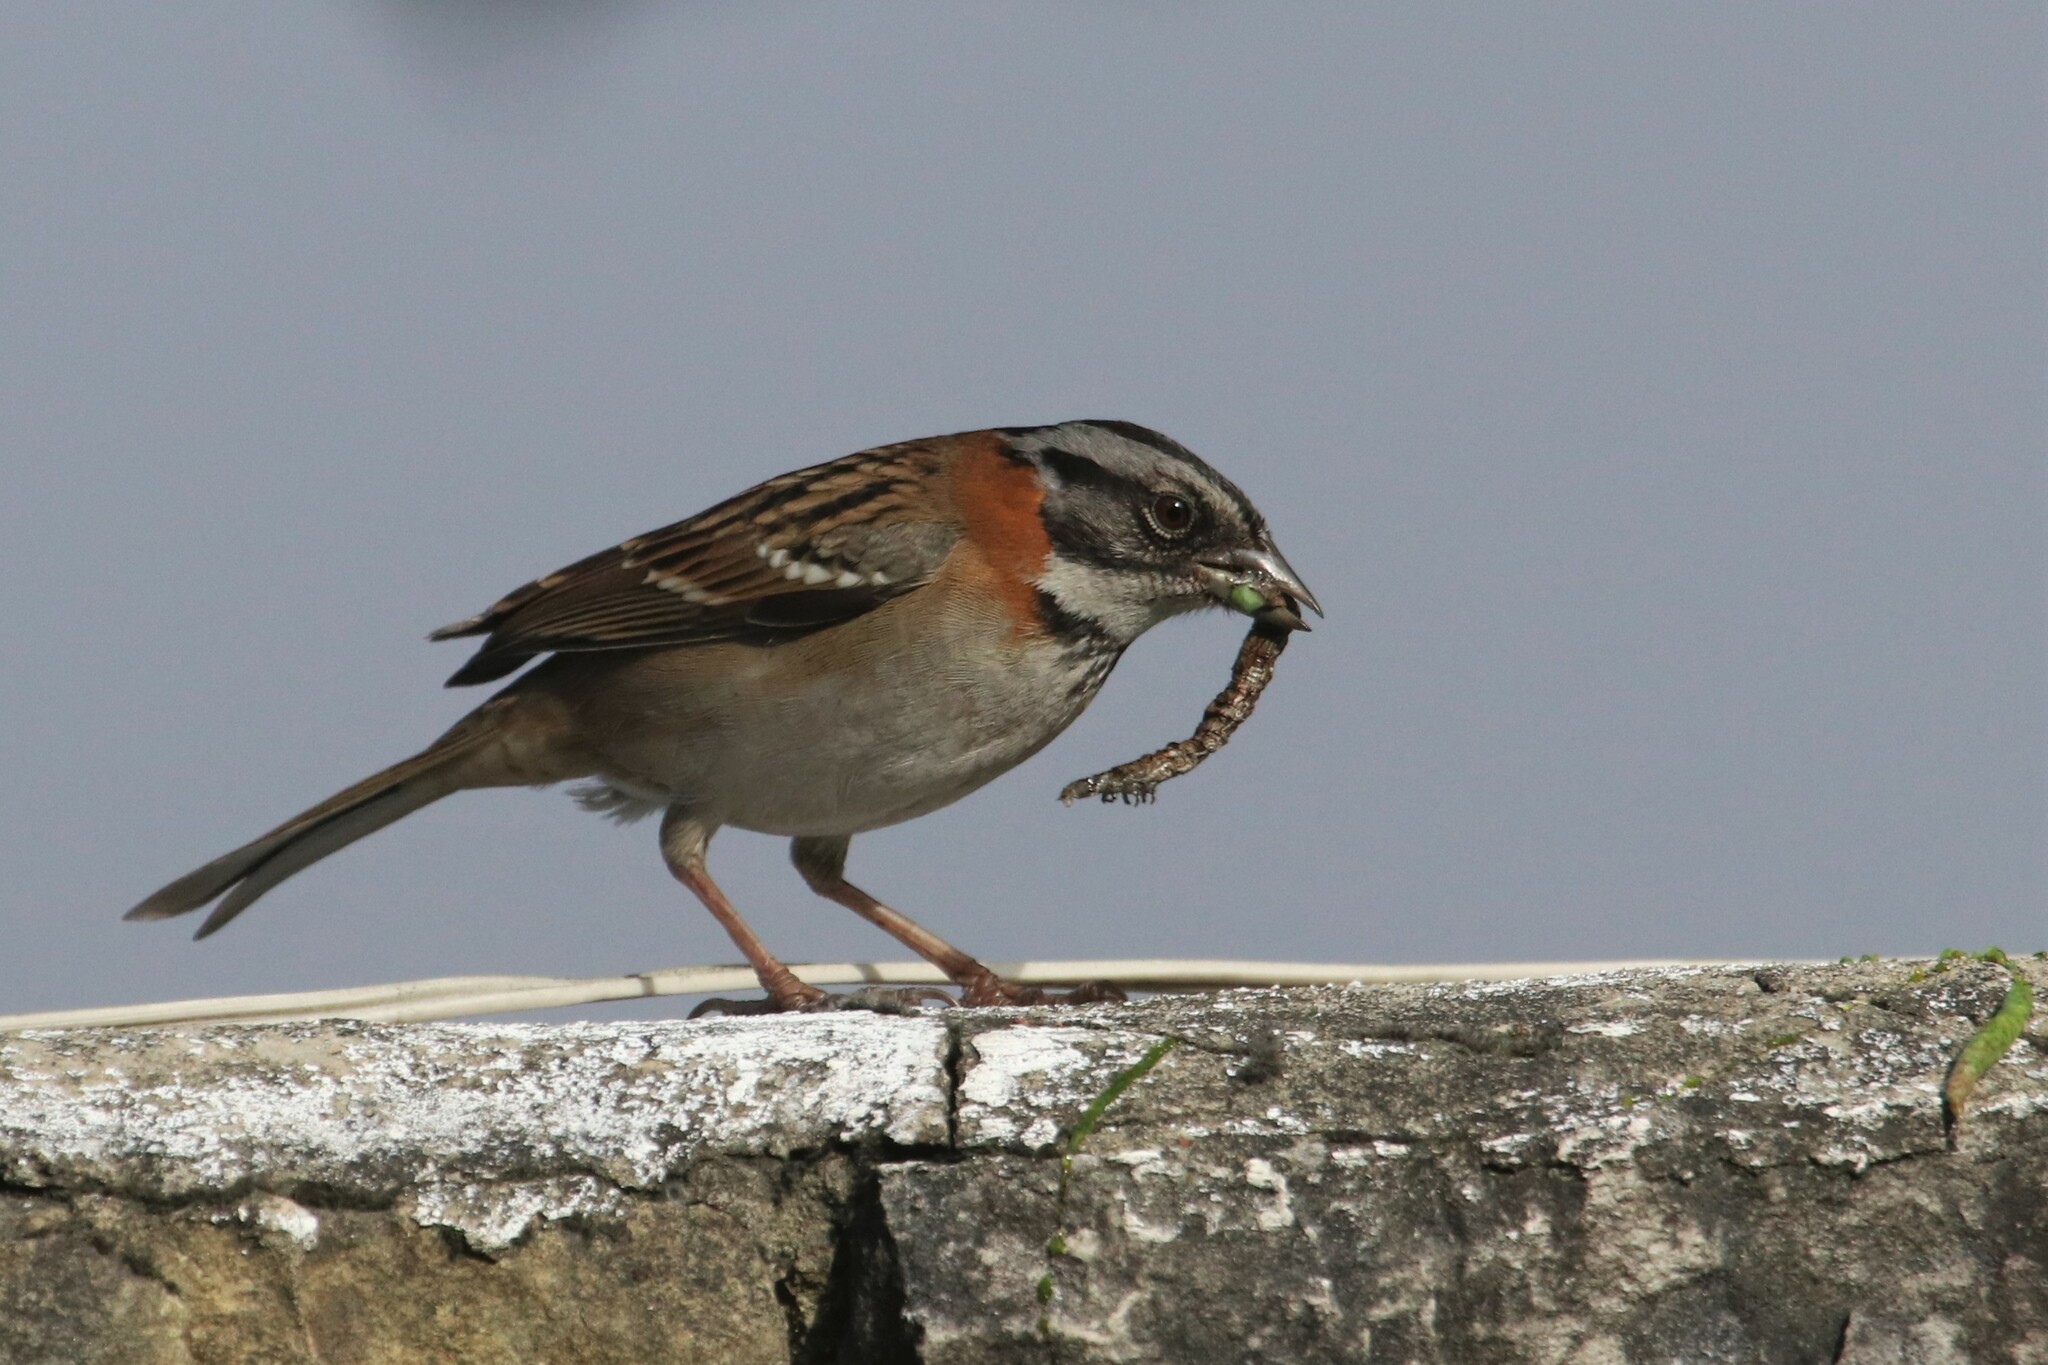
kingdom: Animalia
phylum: Chordata
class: Aves
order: Passeriformes
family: Passerellidae
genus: Zonotrichia
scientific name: Zonotrichia capensis
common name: Rufous-collared sparrow
